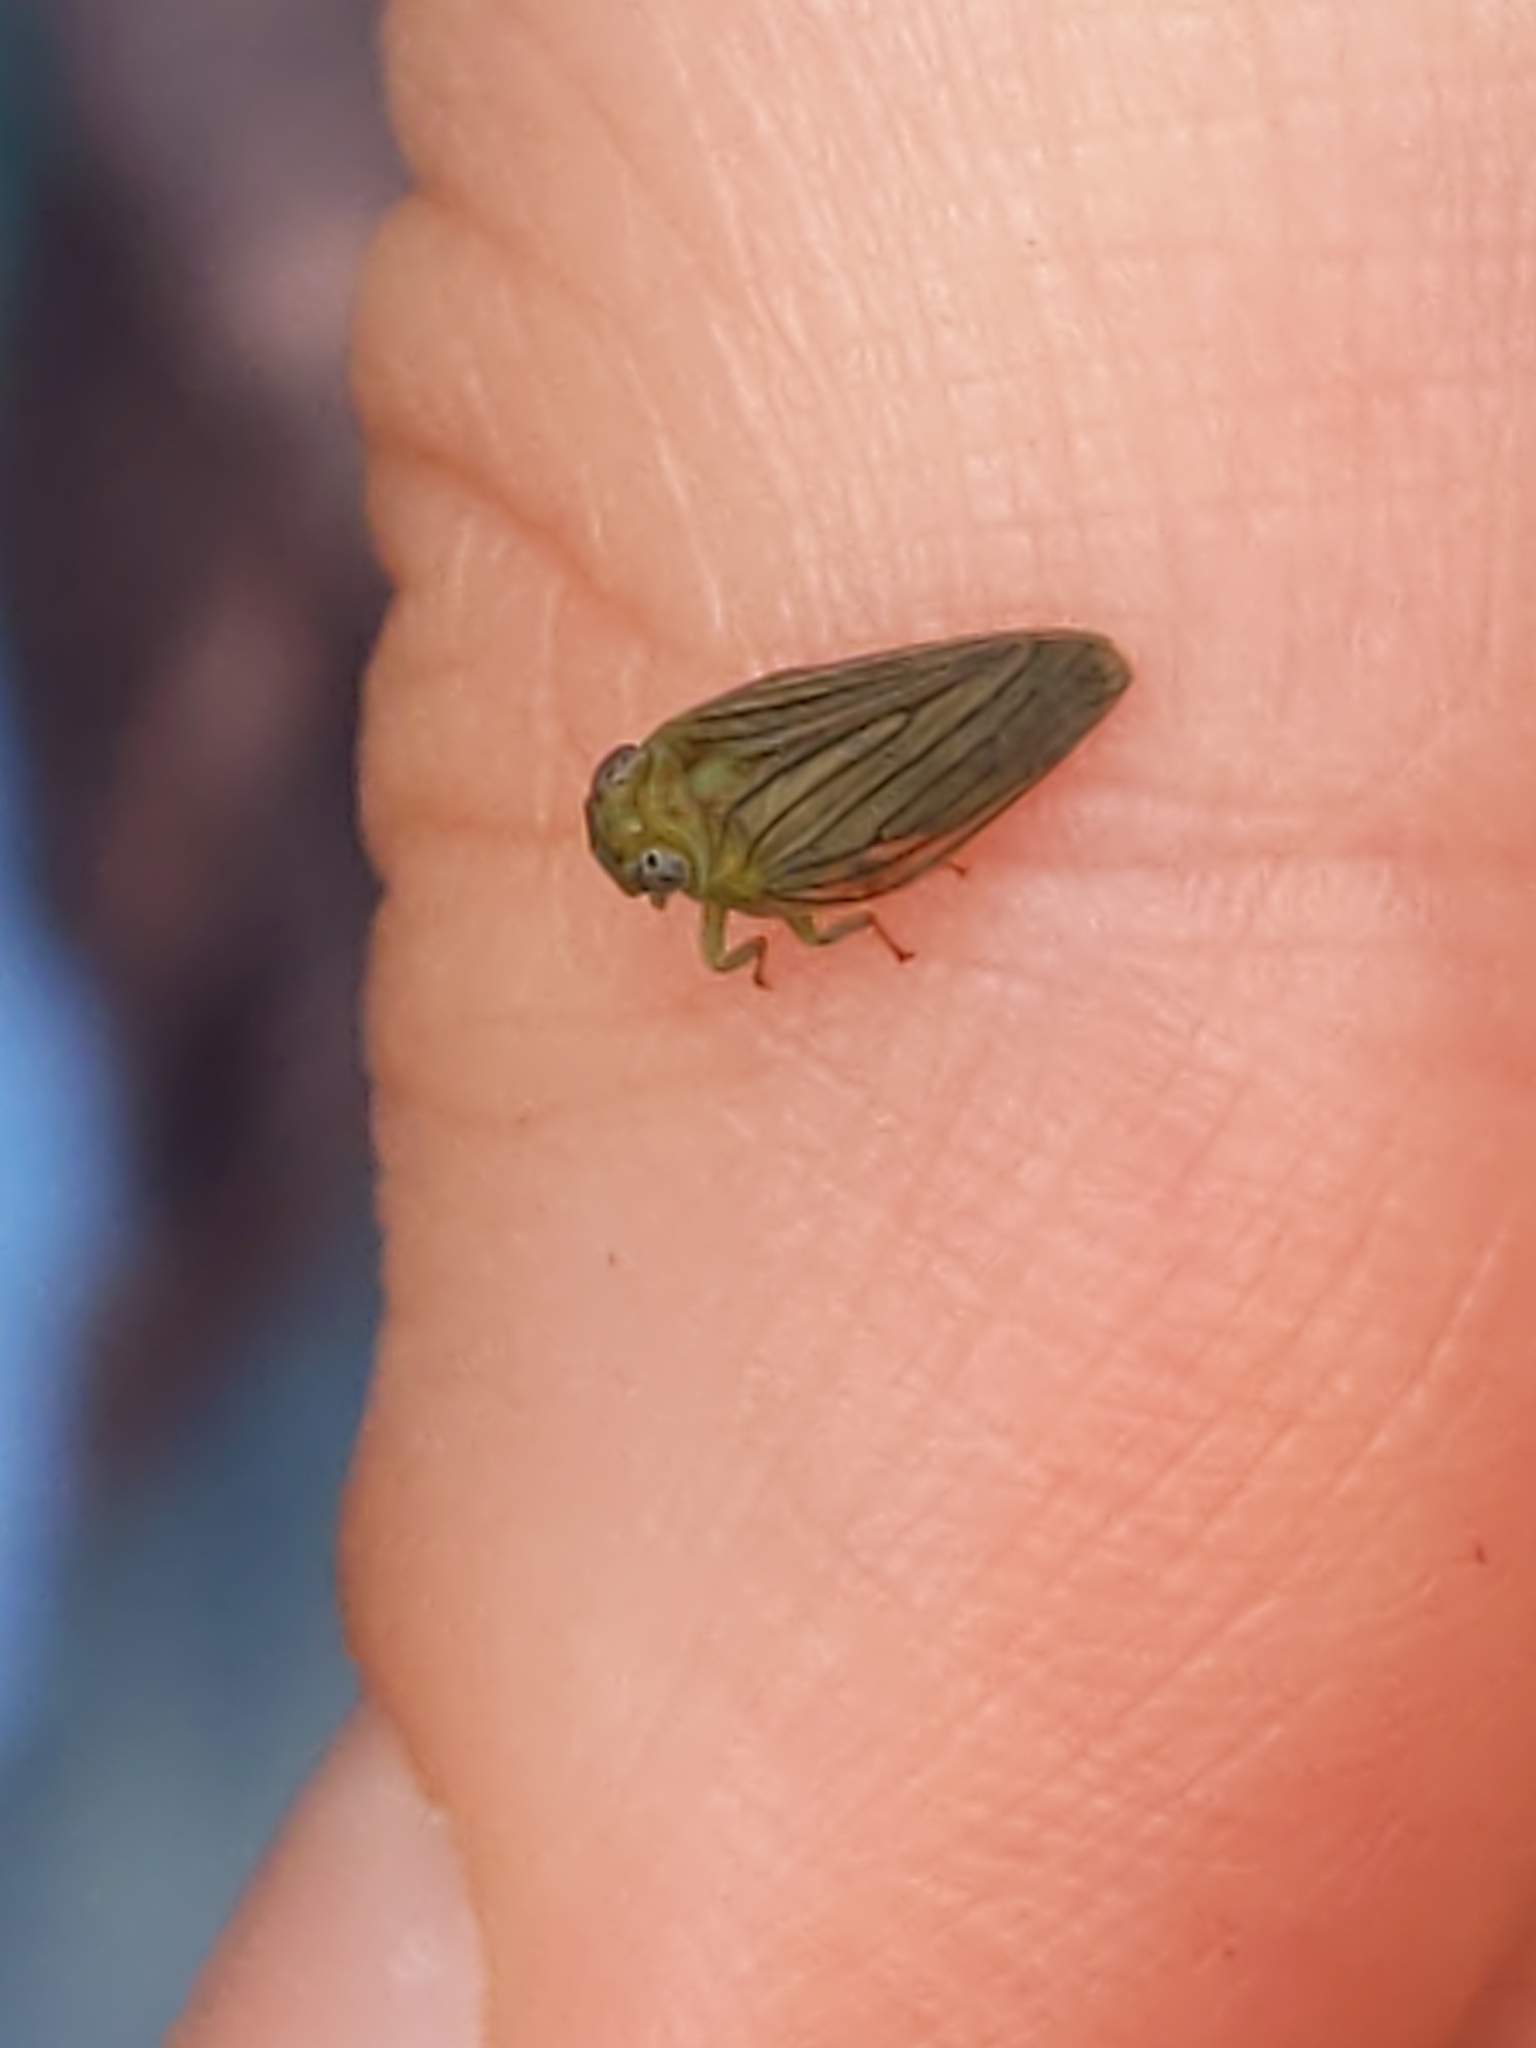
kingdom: Animalia
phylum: Arthropoda
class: Insecta
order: Hemiptera
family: Issidae
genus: Aplos
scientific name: Aplos simplex
